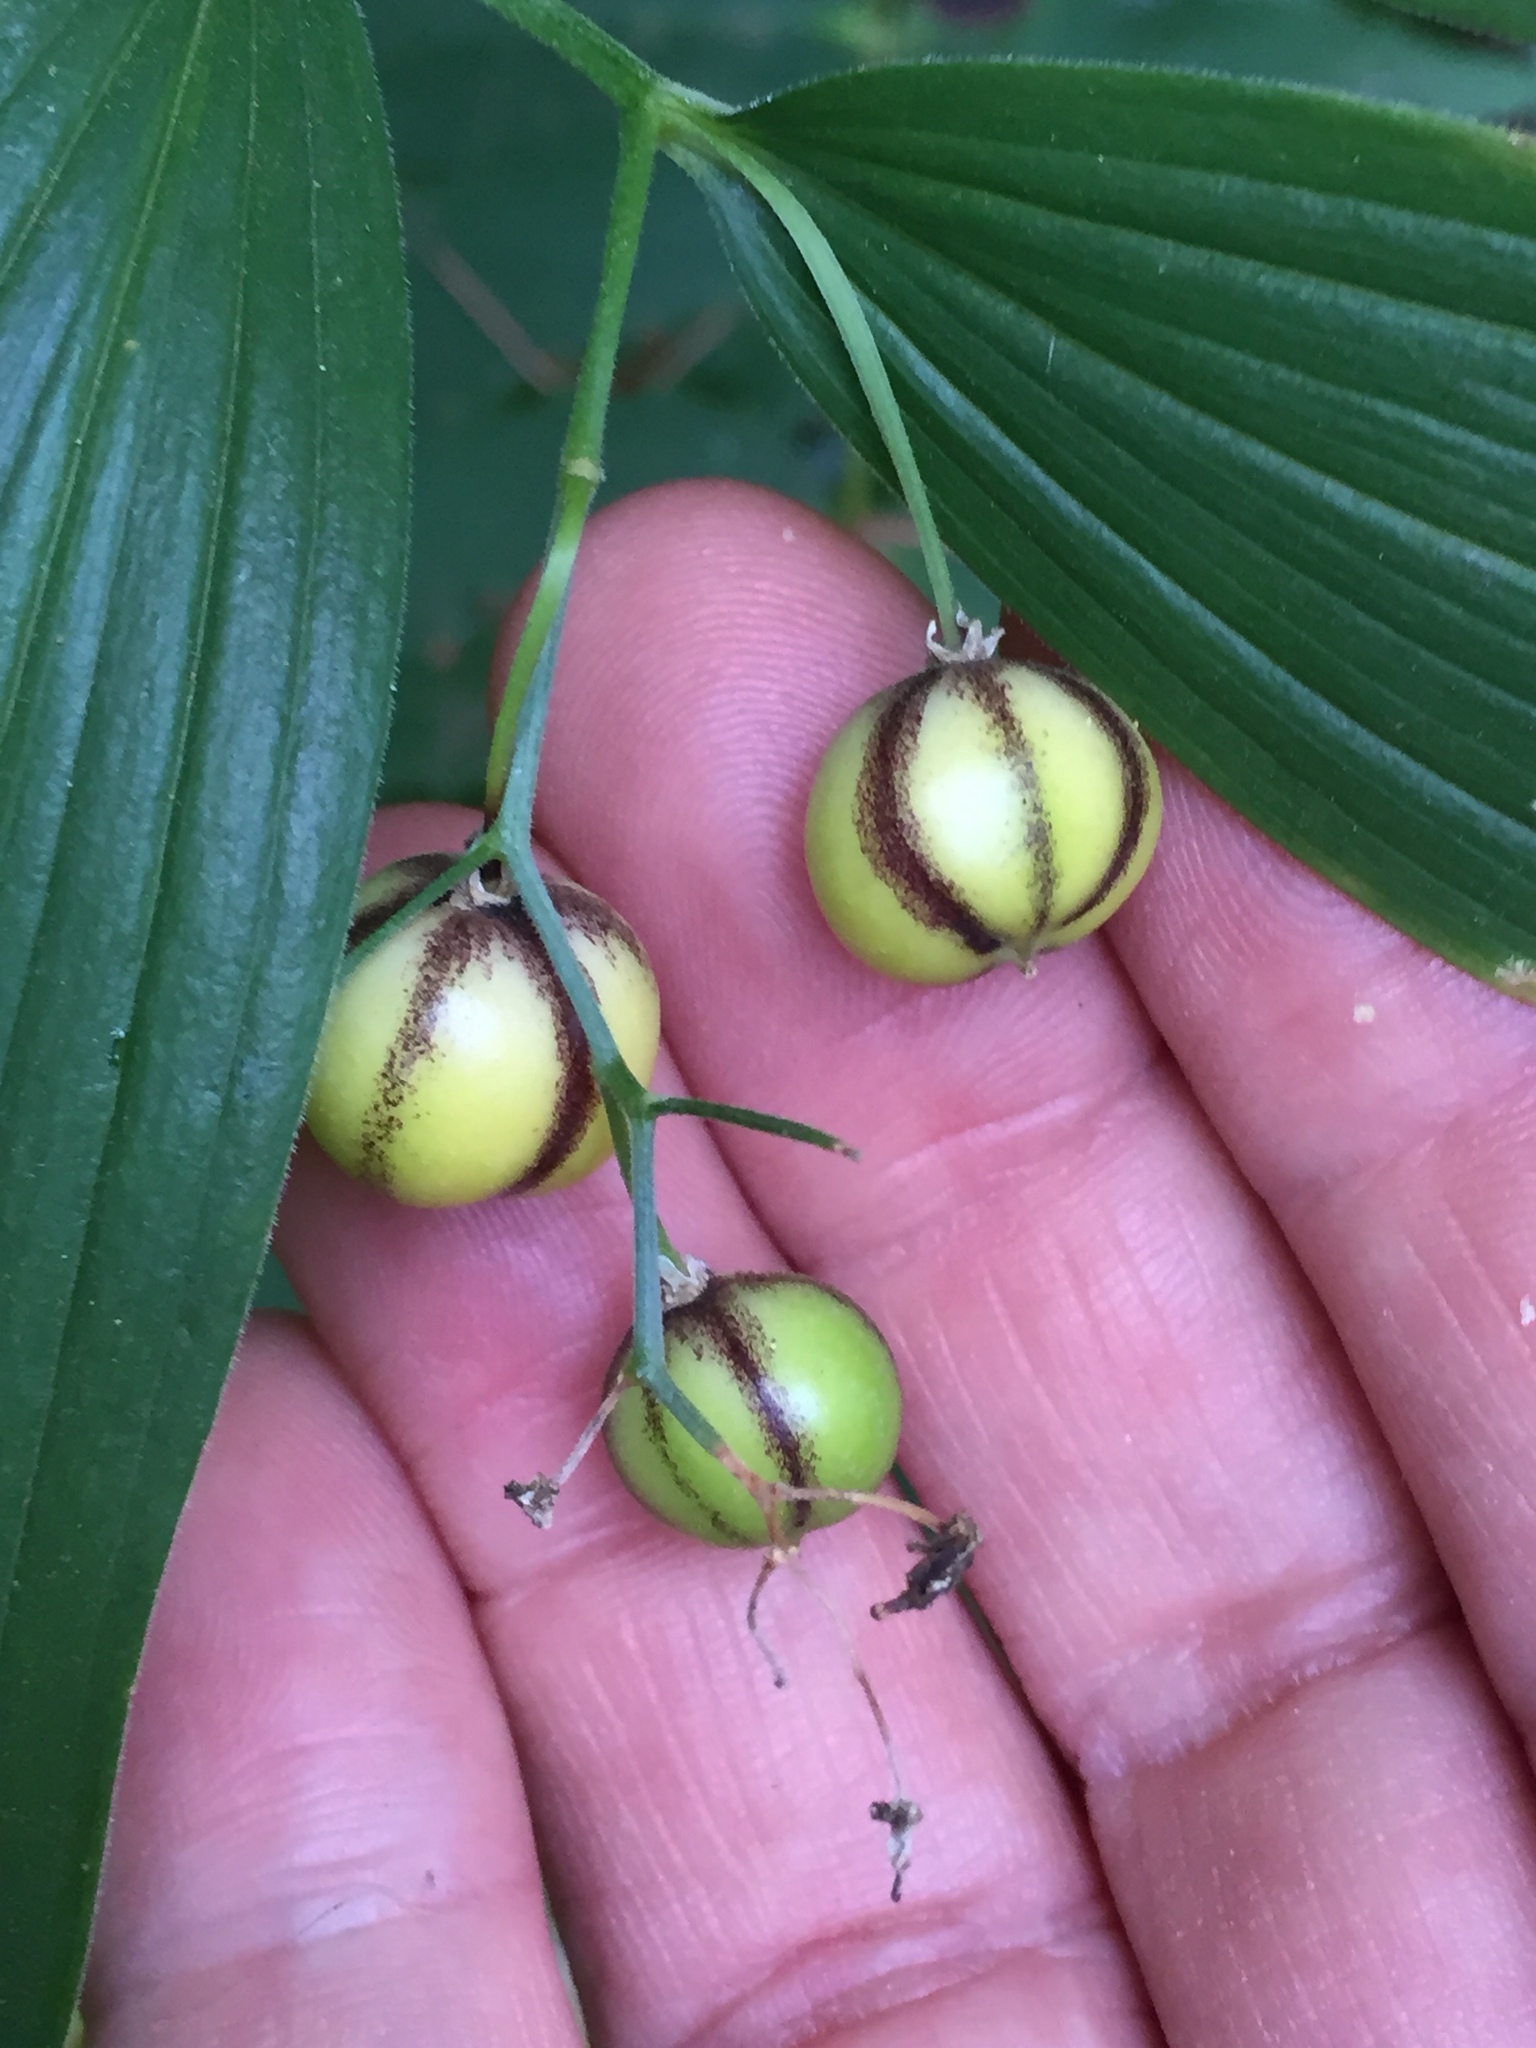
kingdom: Plantae
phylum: Tracheophyta
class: Liliopsida
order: Asparagales
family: Asparagaceae
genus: Maianthemum
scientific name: Maianthemum stellatum
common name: Little false solomon's seal
